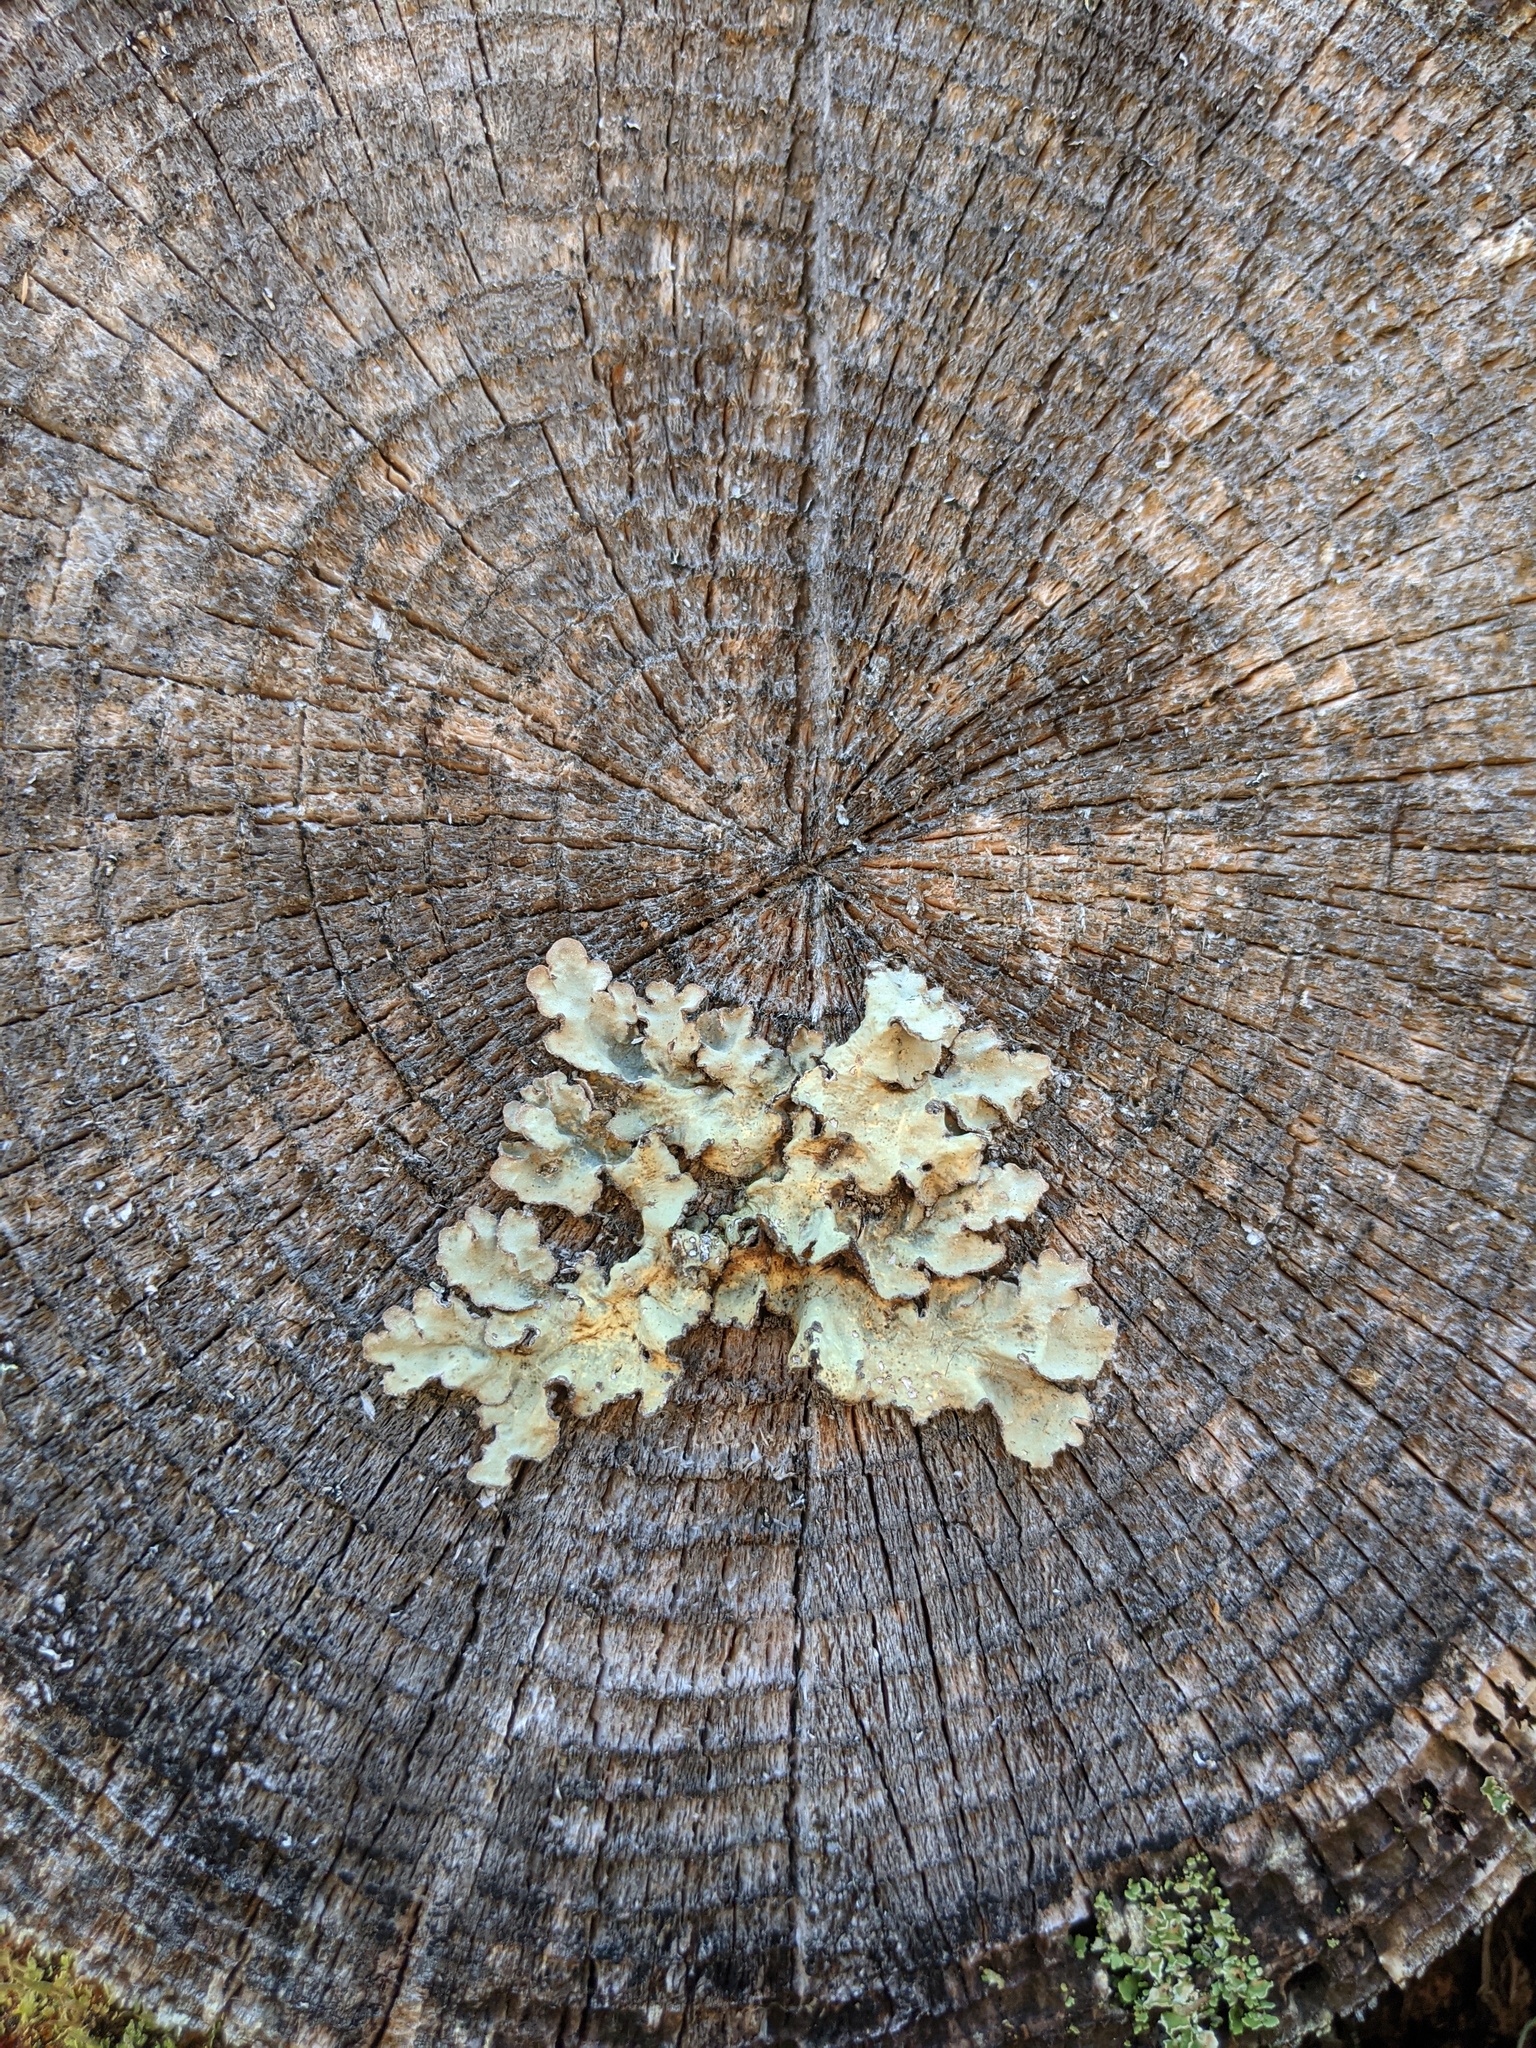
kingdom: Fungi
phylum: Ascomycota
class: Lecanoromycetes
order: Peltigerales
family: Lobariaceae
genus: Lobarina
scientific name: Lobarina scrobiculata
